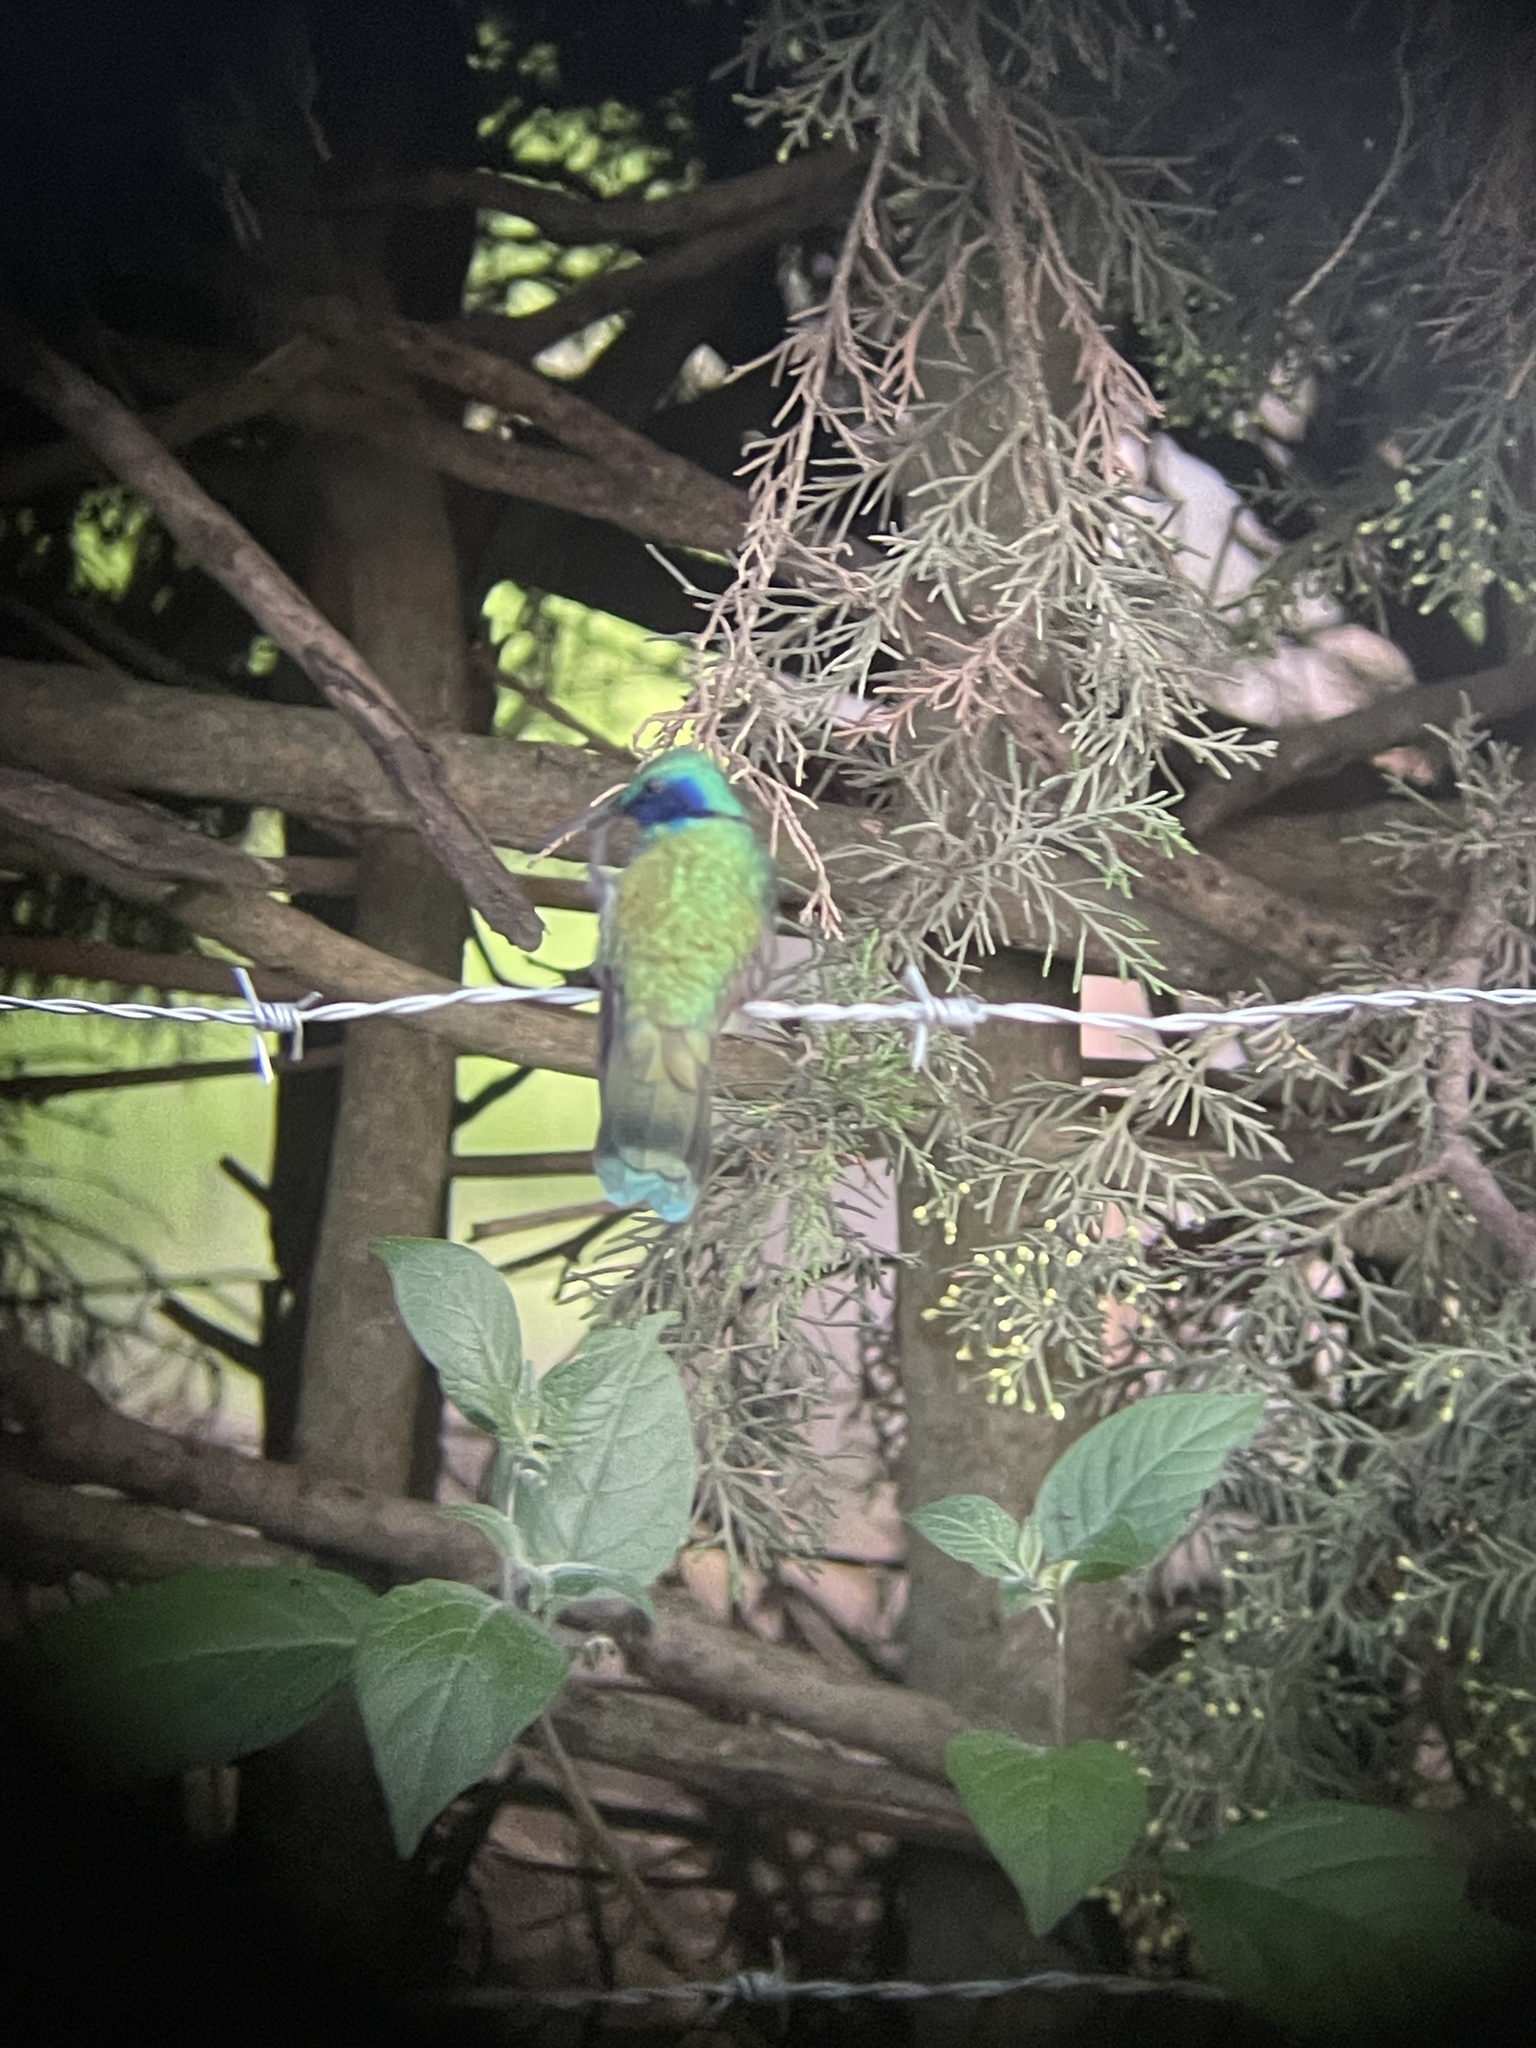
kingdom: Animalia
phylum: Chordata
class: Aves
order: Apodiformes
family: Trochilidae
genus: Colibri
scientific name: Colibri coruscans
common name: Sparkling violetear
